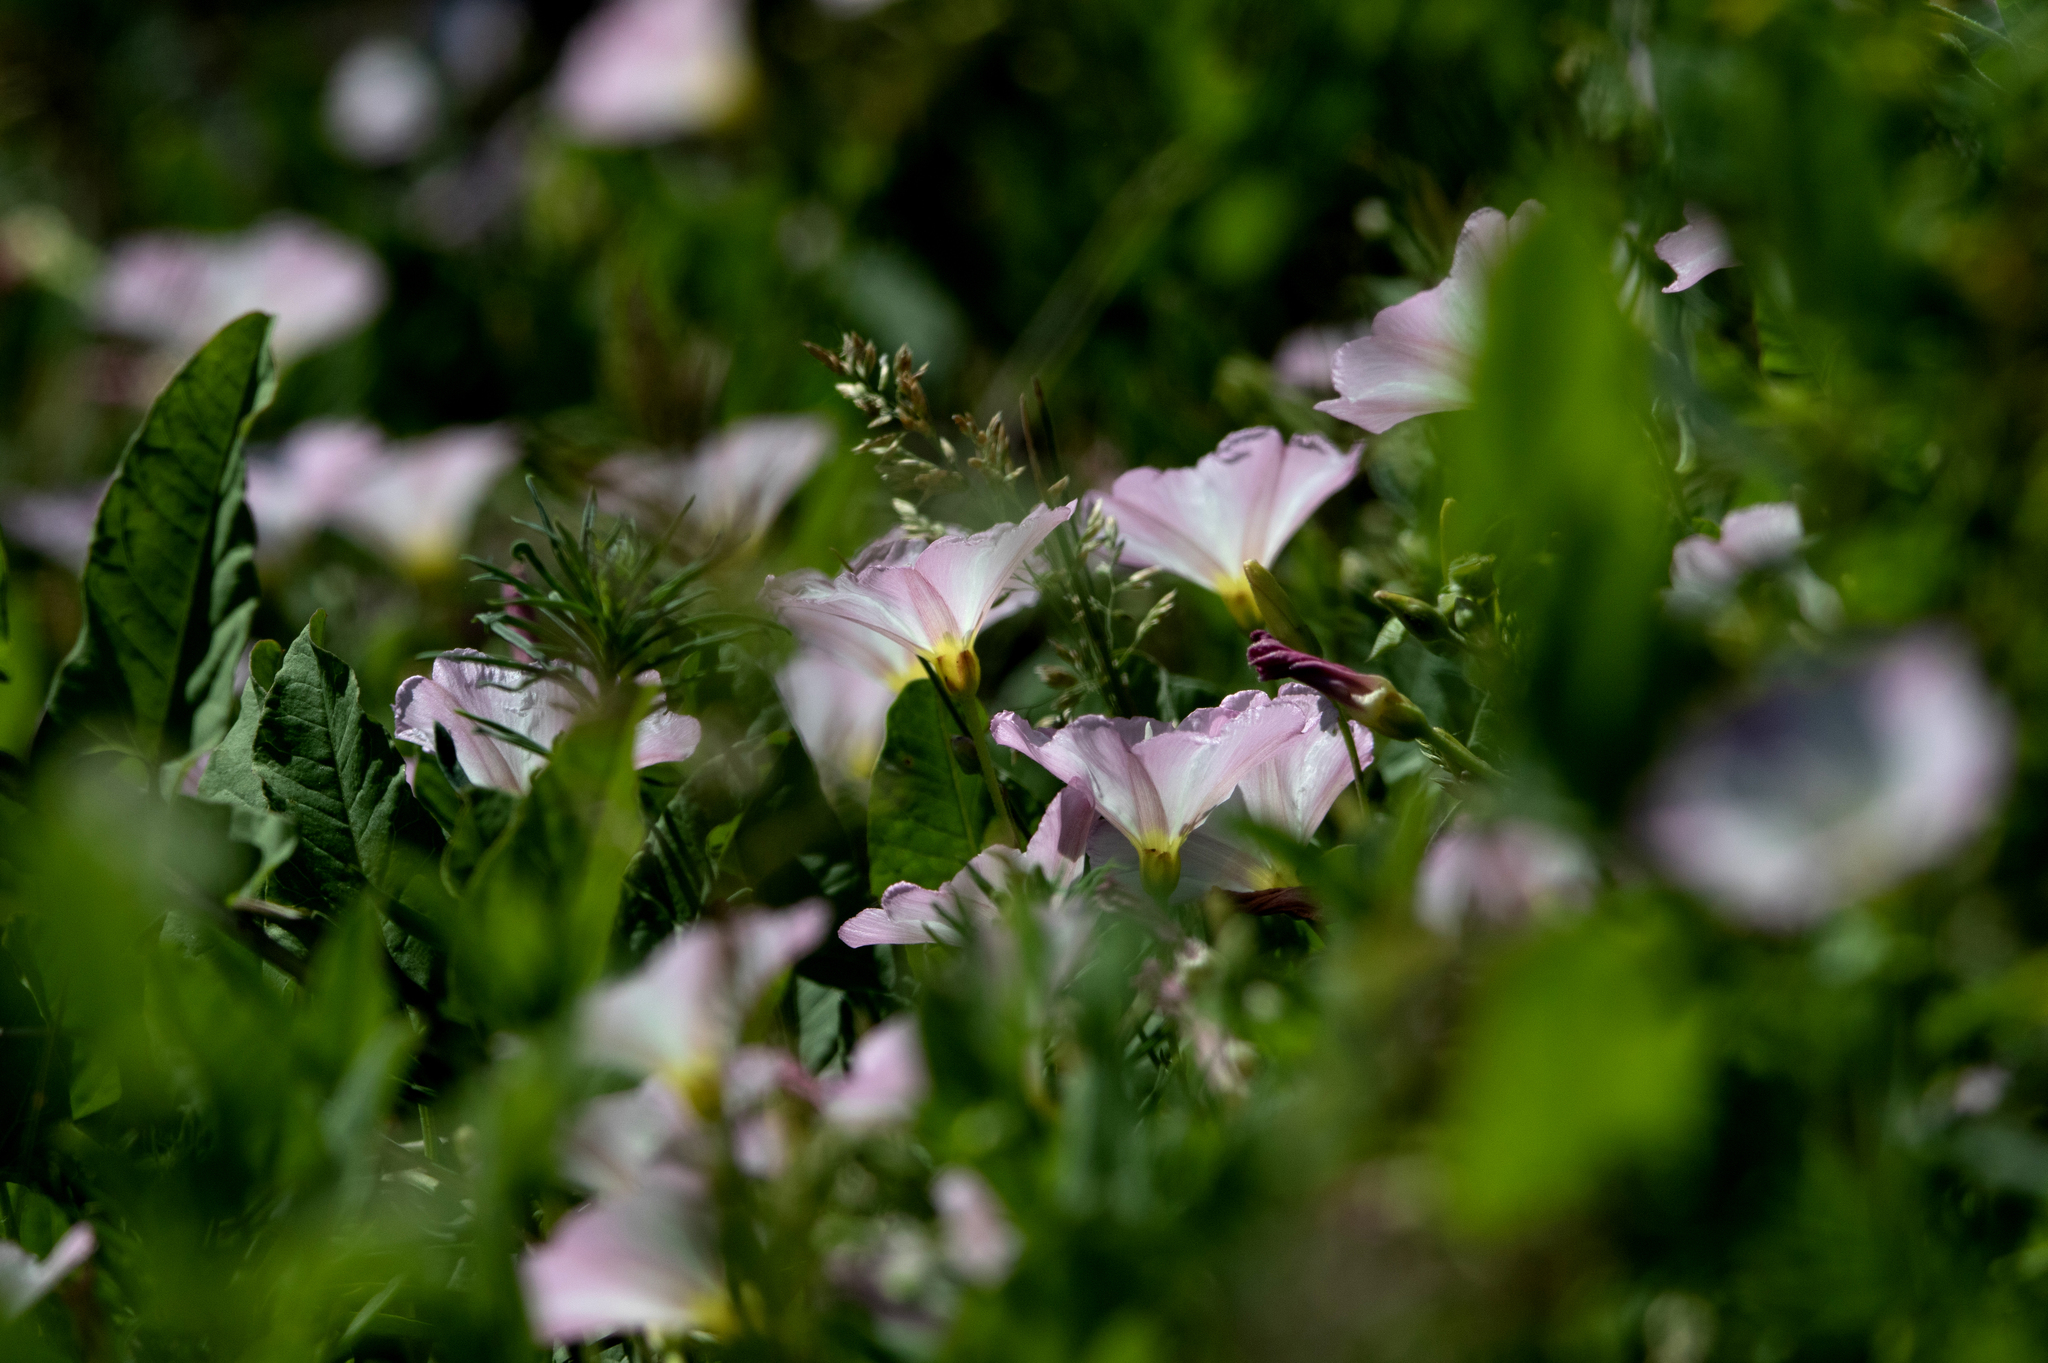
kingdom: Plantae
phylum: Tracheophyta
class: Magnoliopsida
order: Solanales
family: Convolvulaceae
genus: Convolvulus
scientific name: Convolvulus arvensis
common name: Field bindweed
